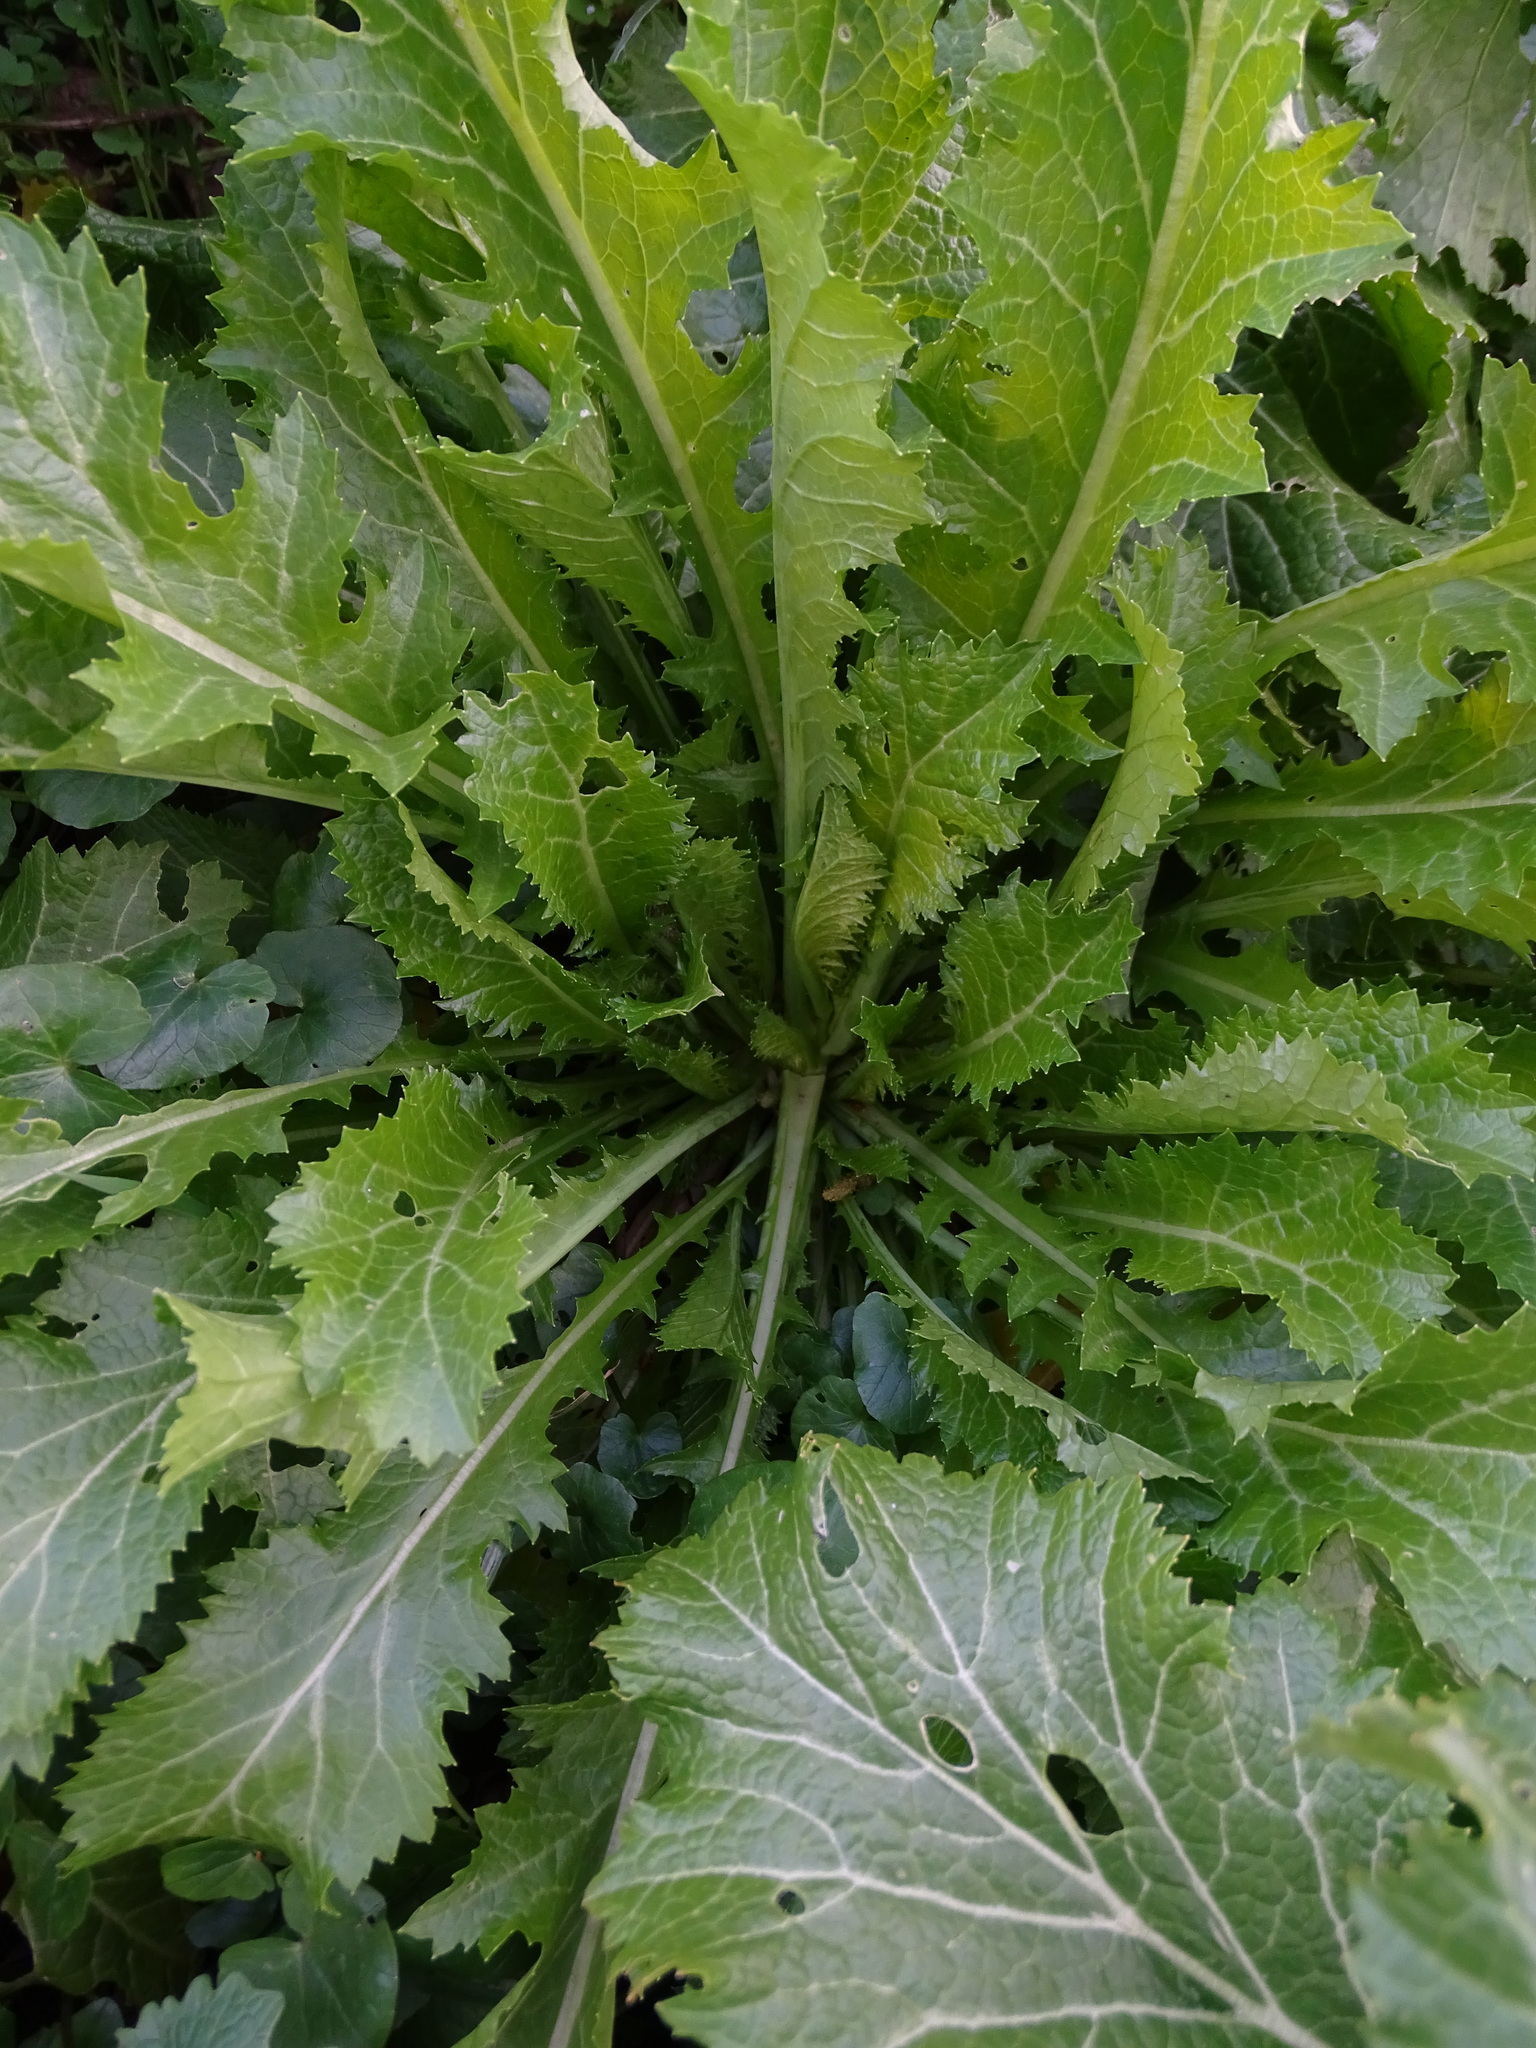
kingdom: Plantae
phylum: Tracheophyta
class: Magnoliopsida
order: Brassicales
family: Brassicaceae
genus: Brassica
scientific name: Brassica juncea
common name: Brown mustard
